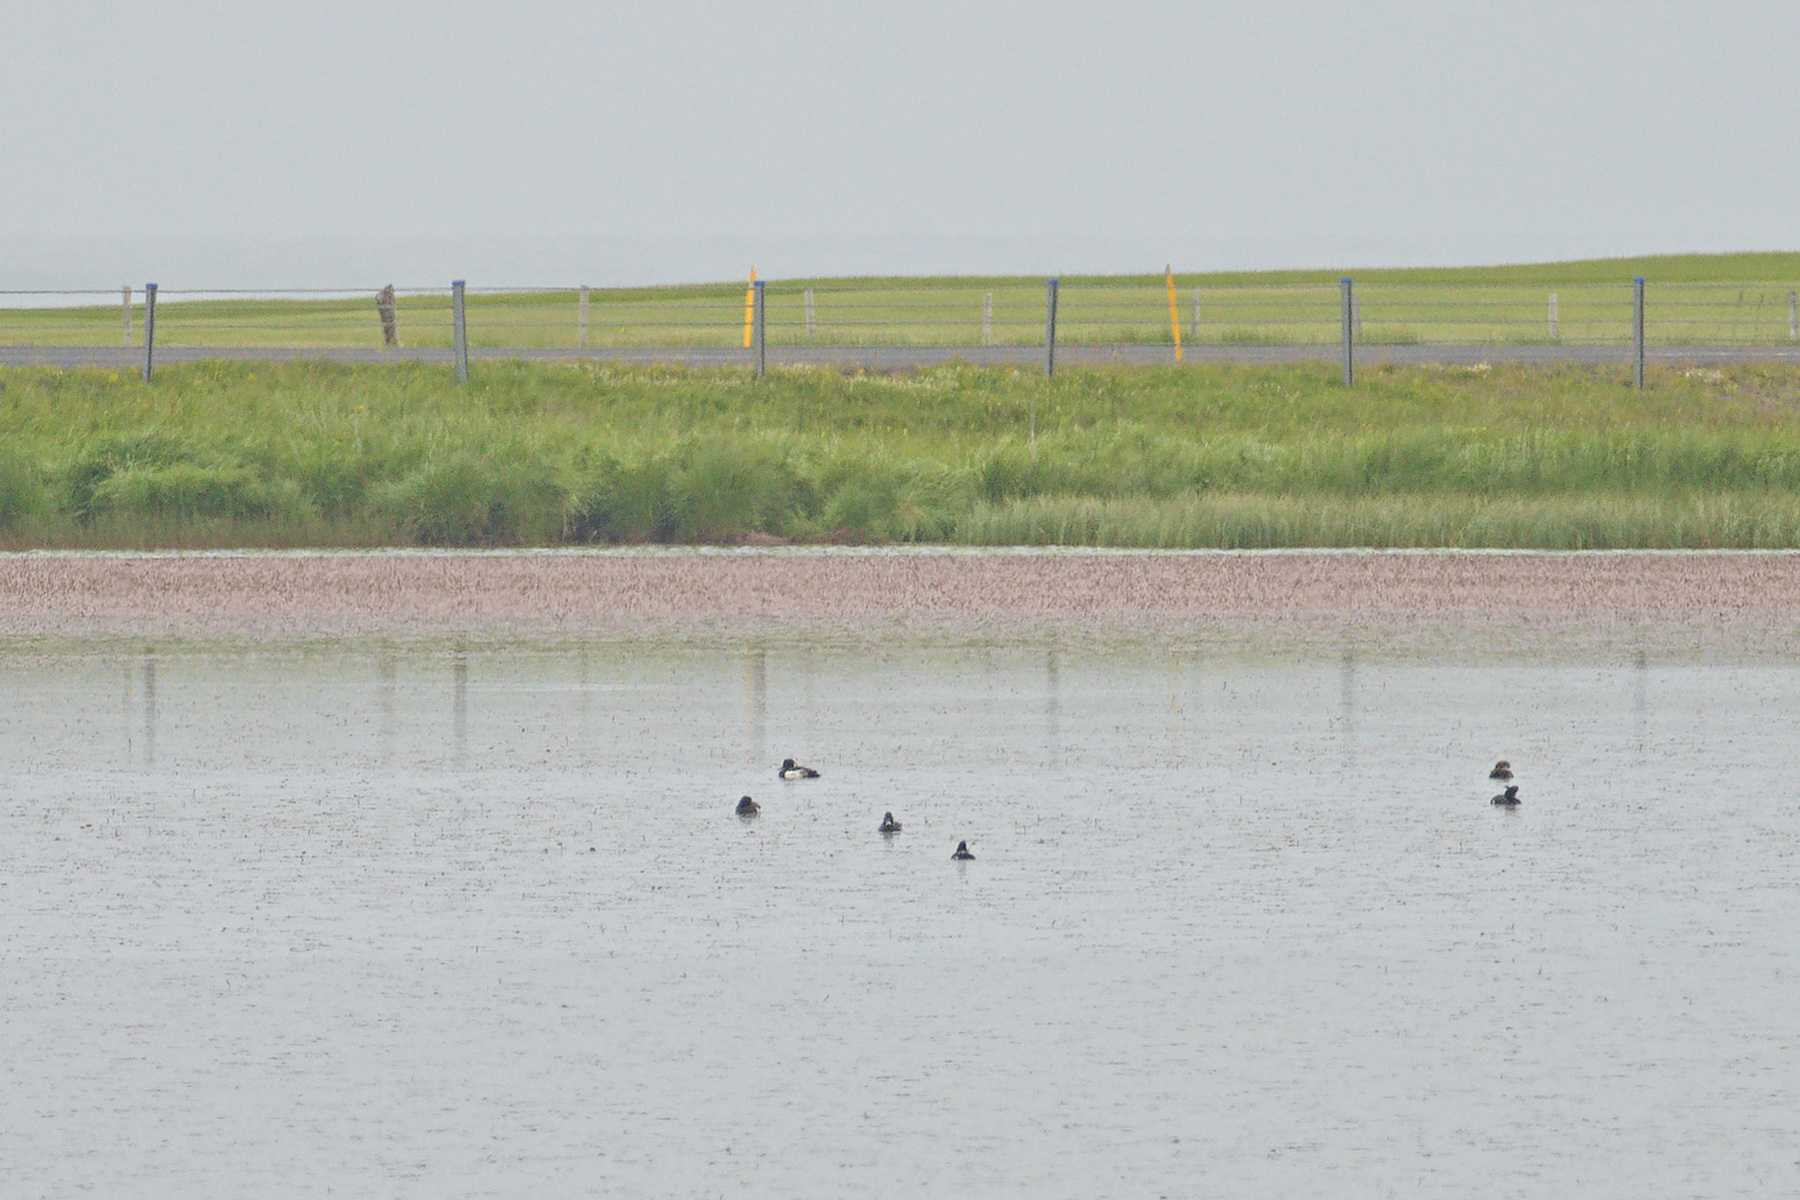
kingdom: Animalia
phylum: Chordata
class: Aves
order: Anseriformes
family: Anatidae
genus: Aythya
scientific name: Aythya fuligula
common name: Tufted duck
